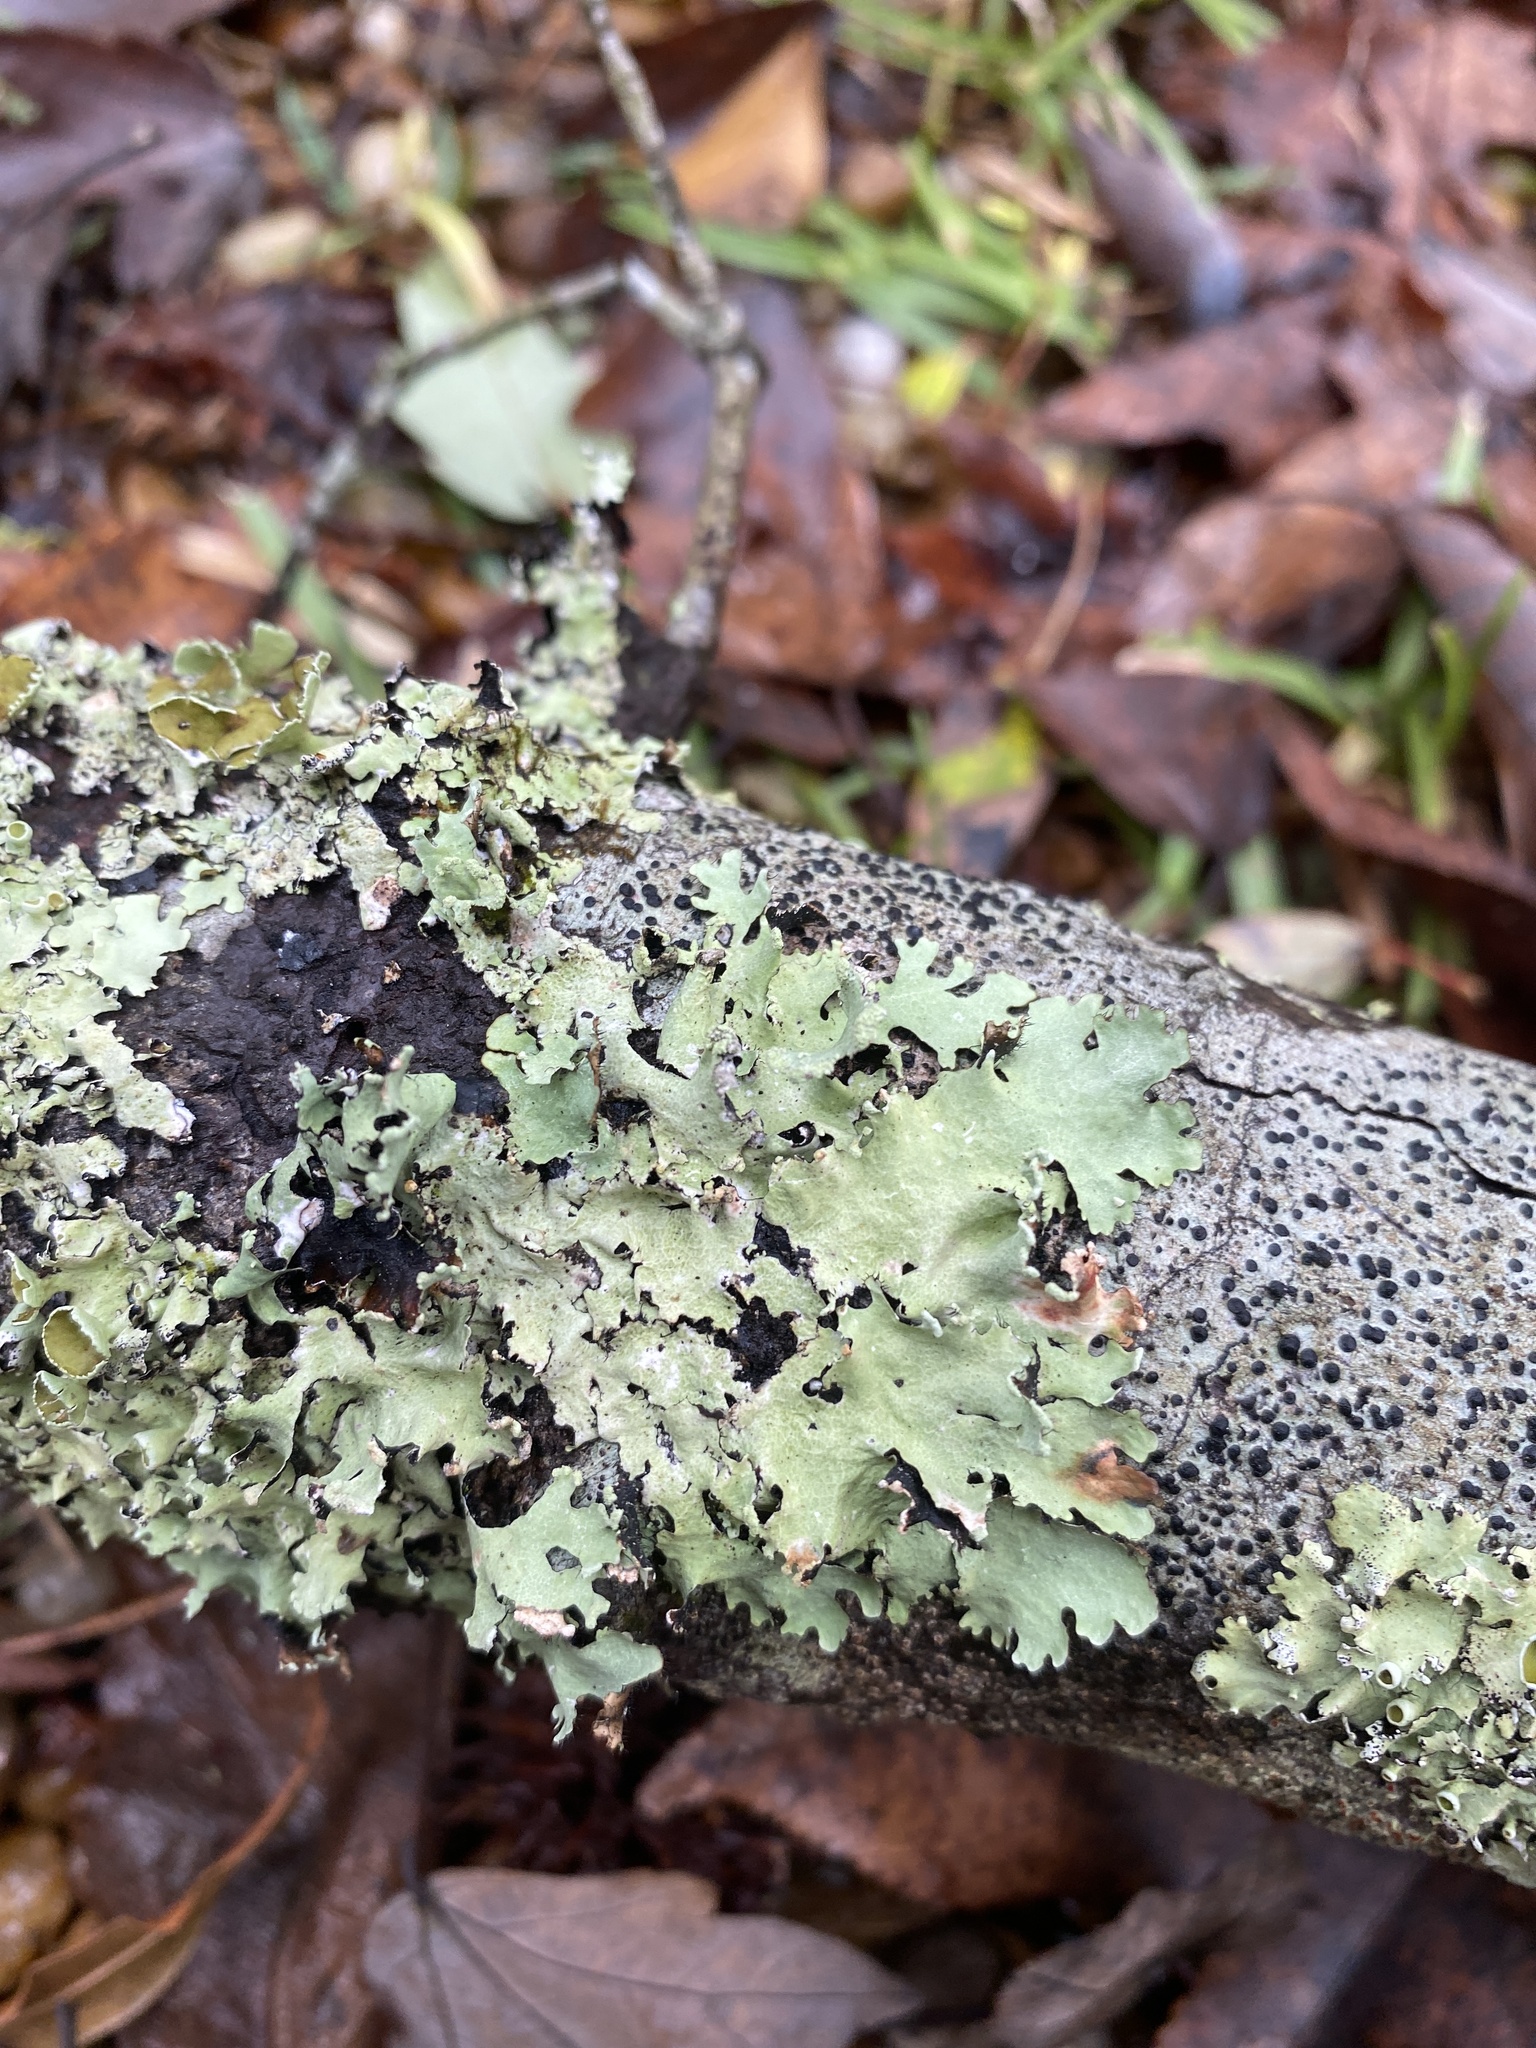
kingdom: Fungi
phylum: Ascomycota
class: Lecanoromycetes
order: Lecanorales
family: Parmeliaceae
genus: Rimelia
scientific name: Rimelia subisidiosa
